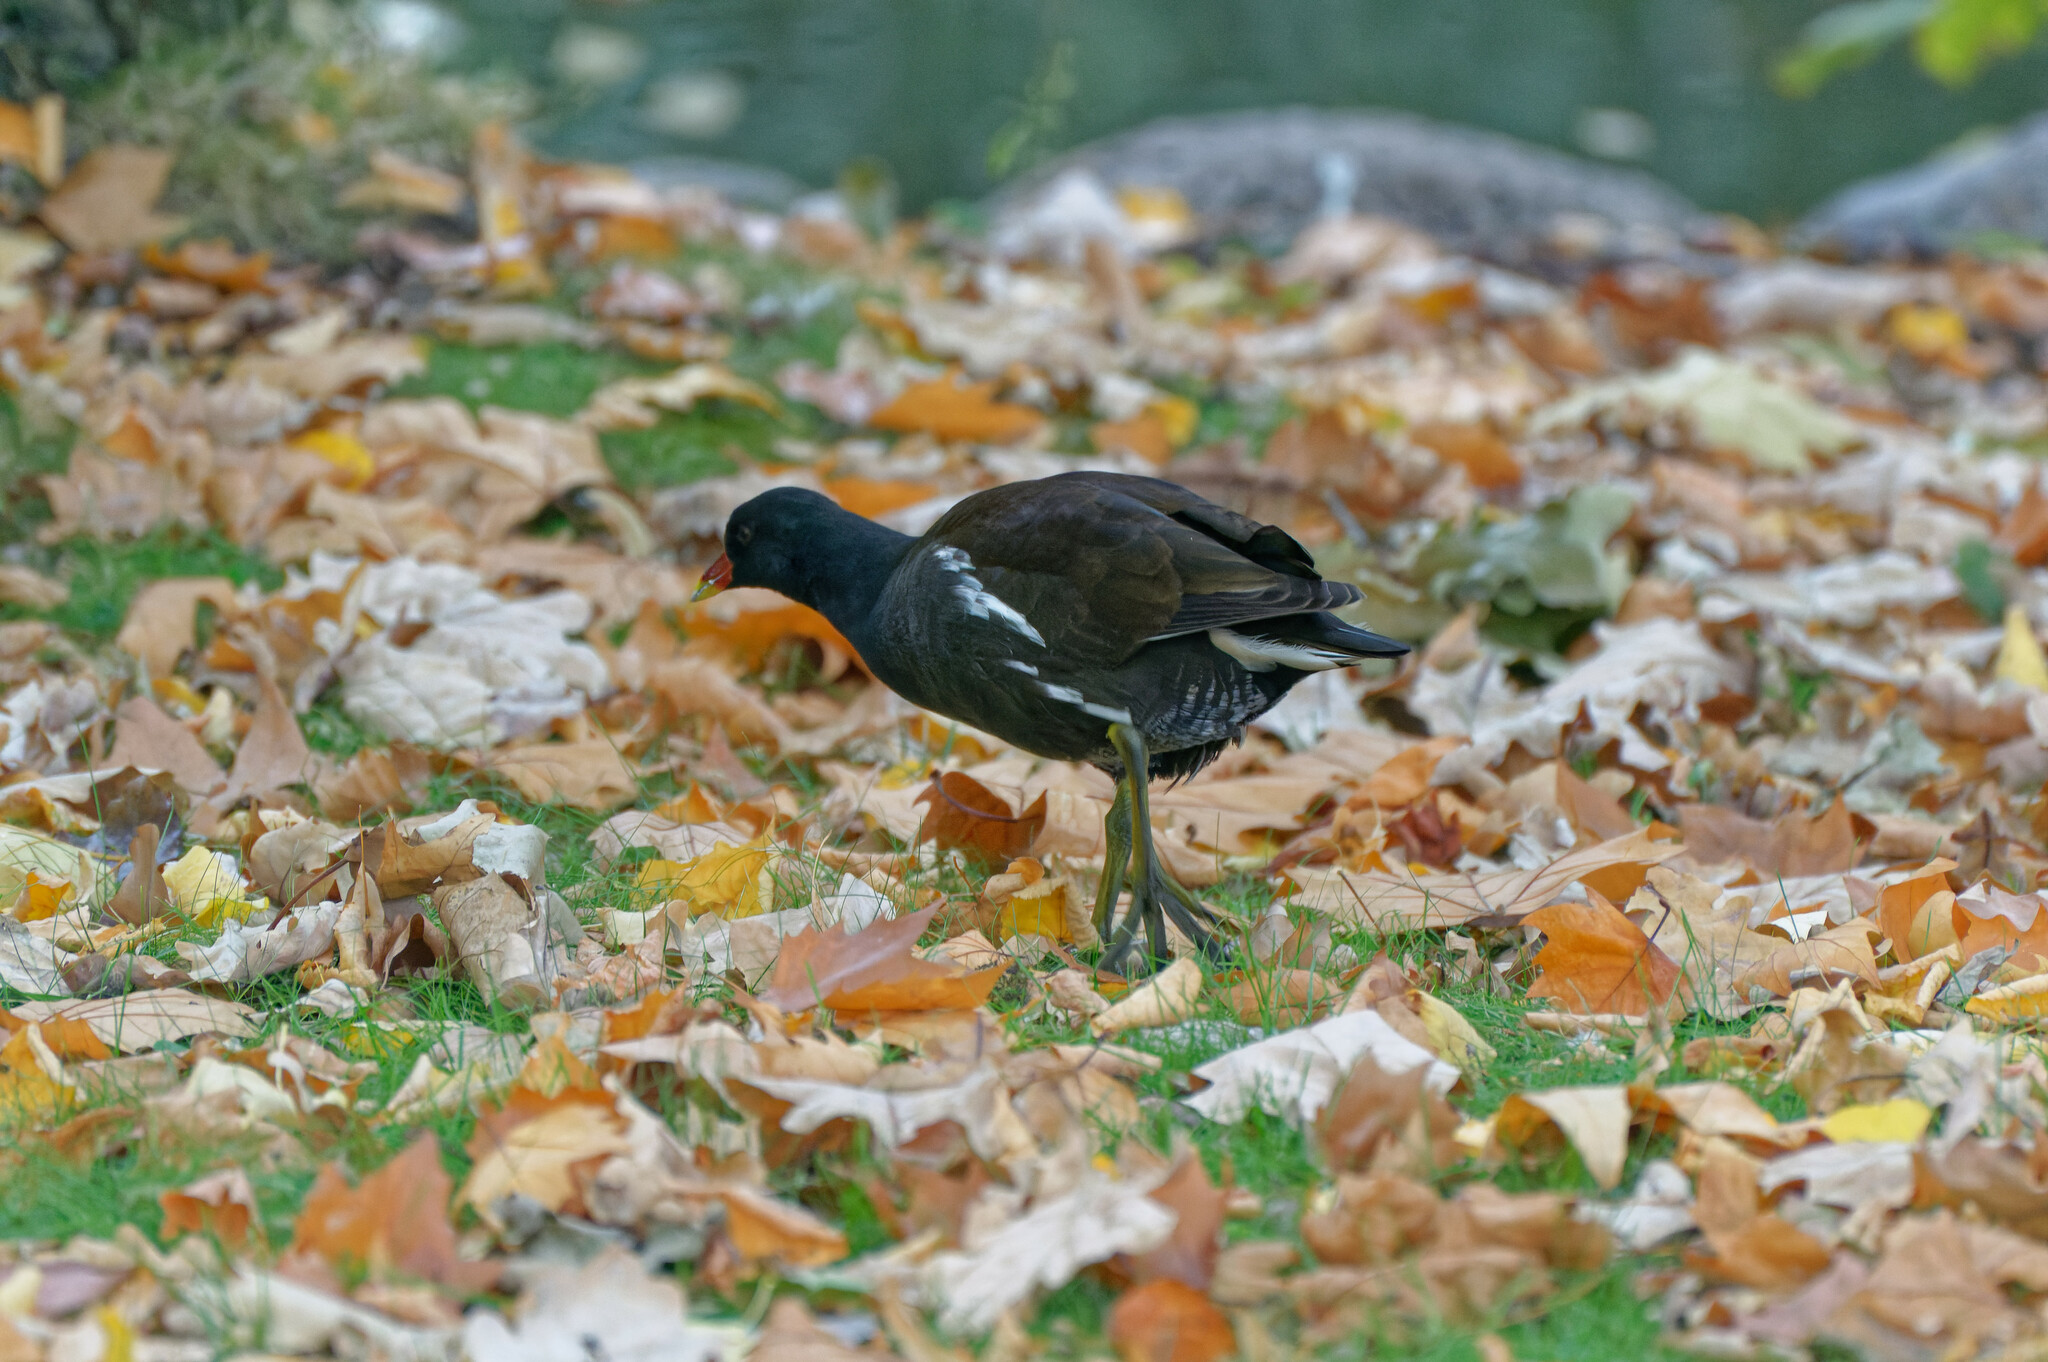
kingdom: Animalia
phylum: Chordata
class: Aves
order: Gruiformes
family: Rallidae
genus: Gallinula
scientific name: Gallinula chloropus
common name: Common moorhen
